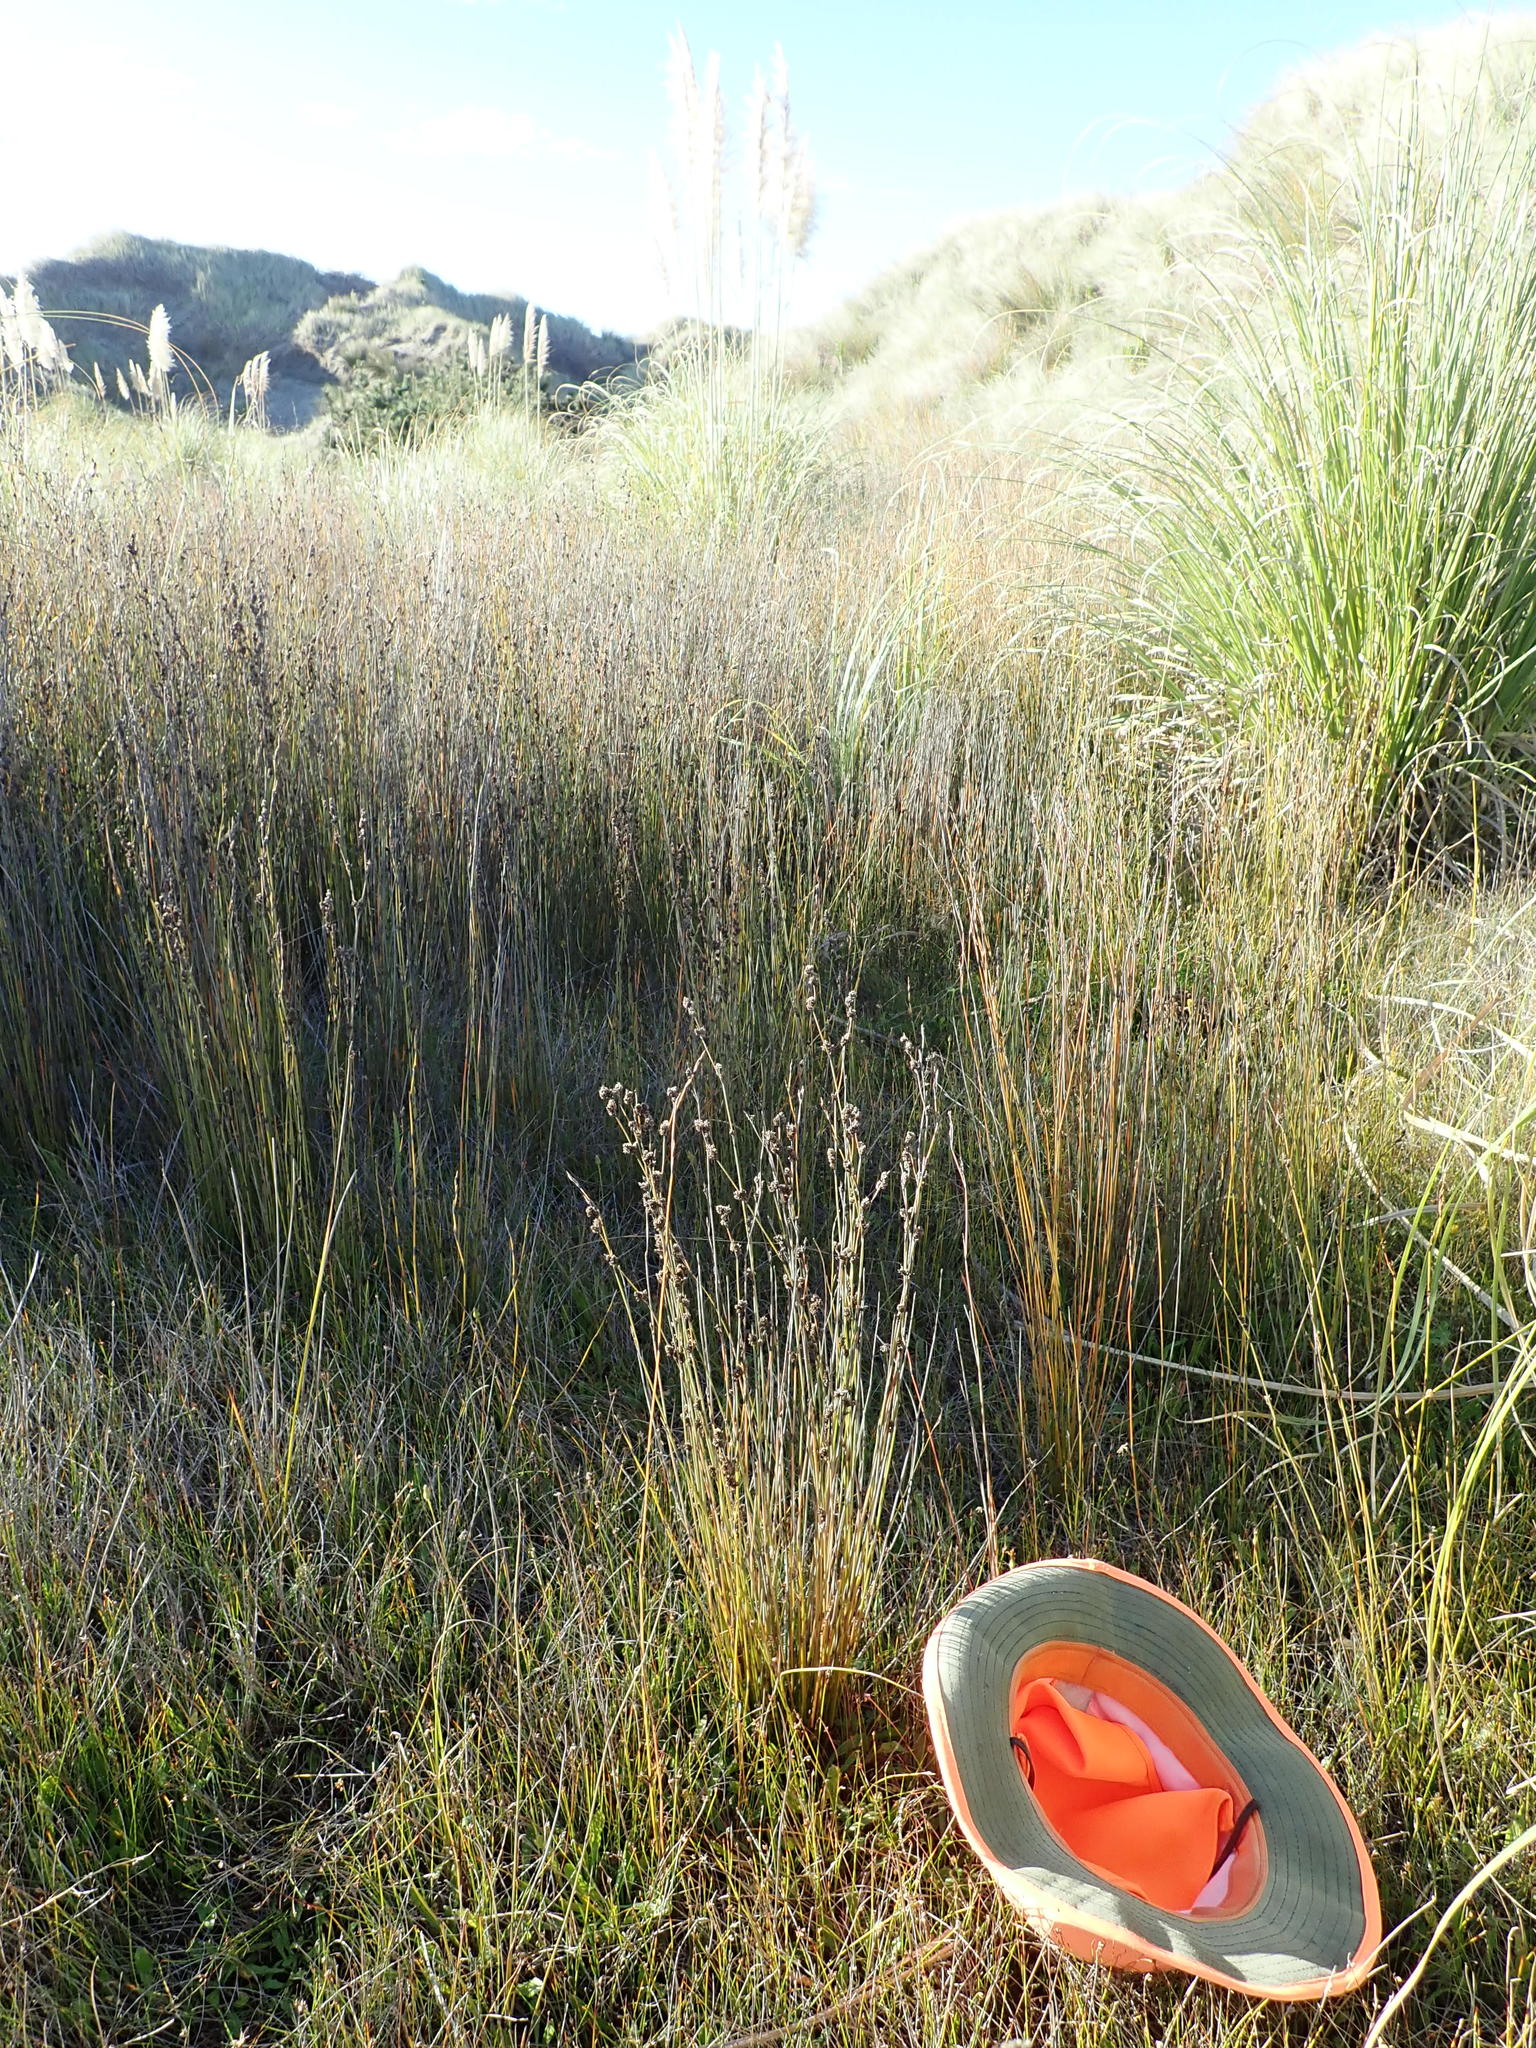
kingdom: Plantae
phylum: Tracheophyta
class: Liliopsida
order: Poales
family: Restionaceae
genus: Apodasmia
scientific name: Apodasmia similis
